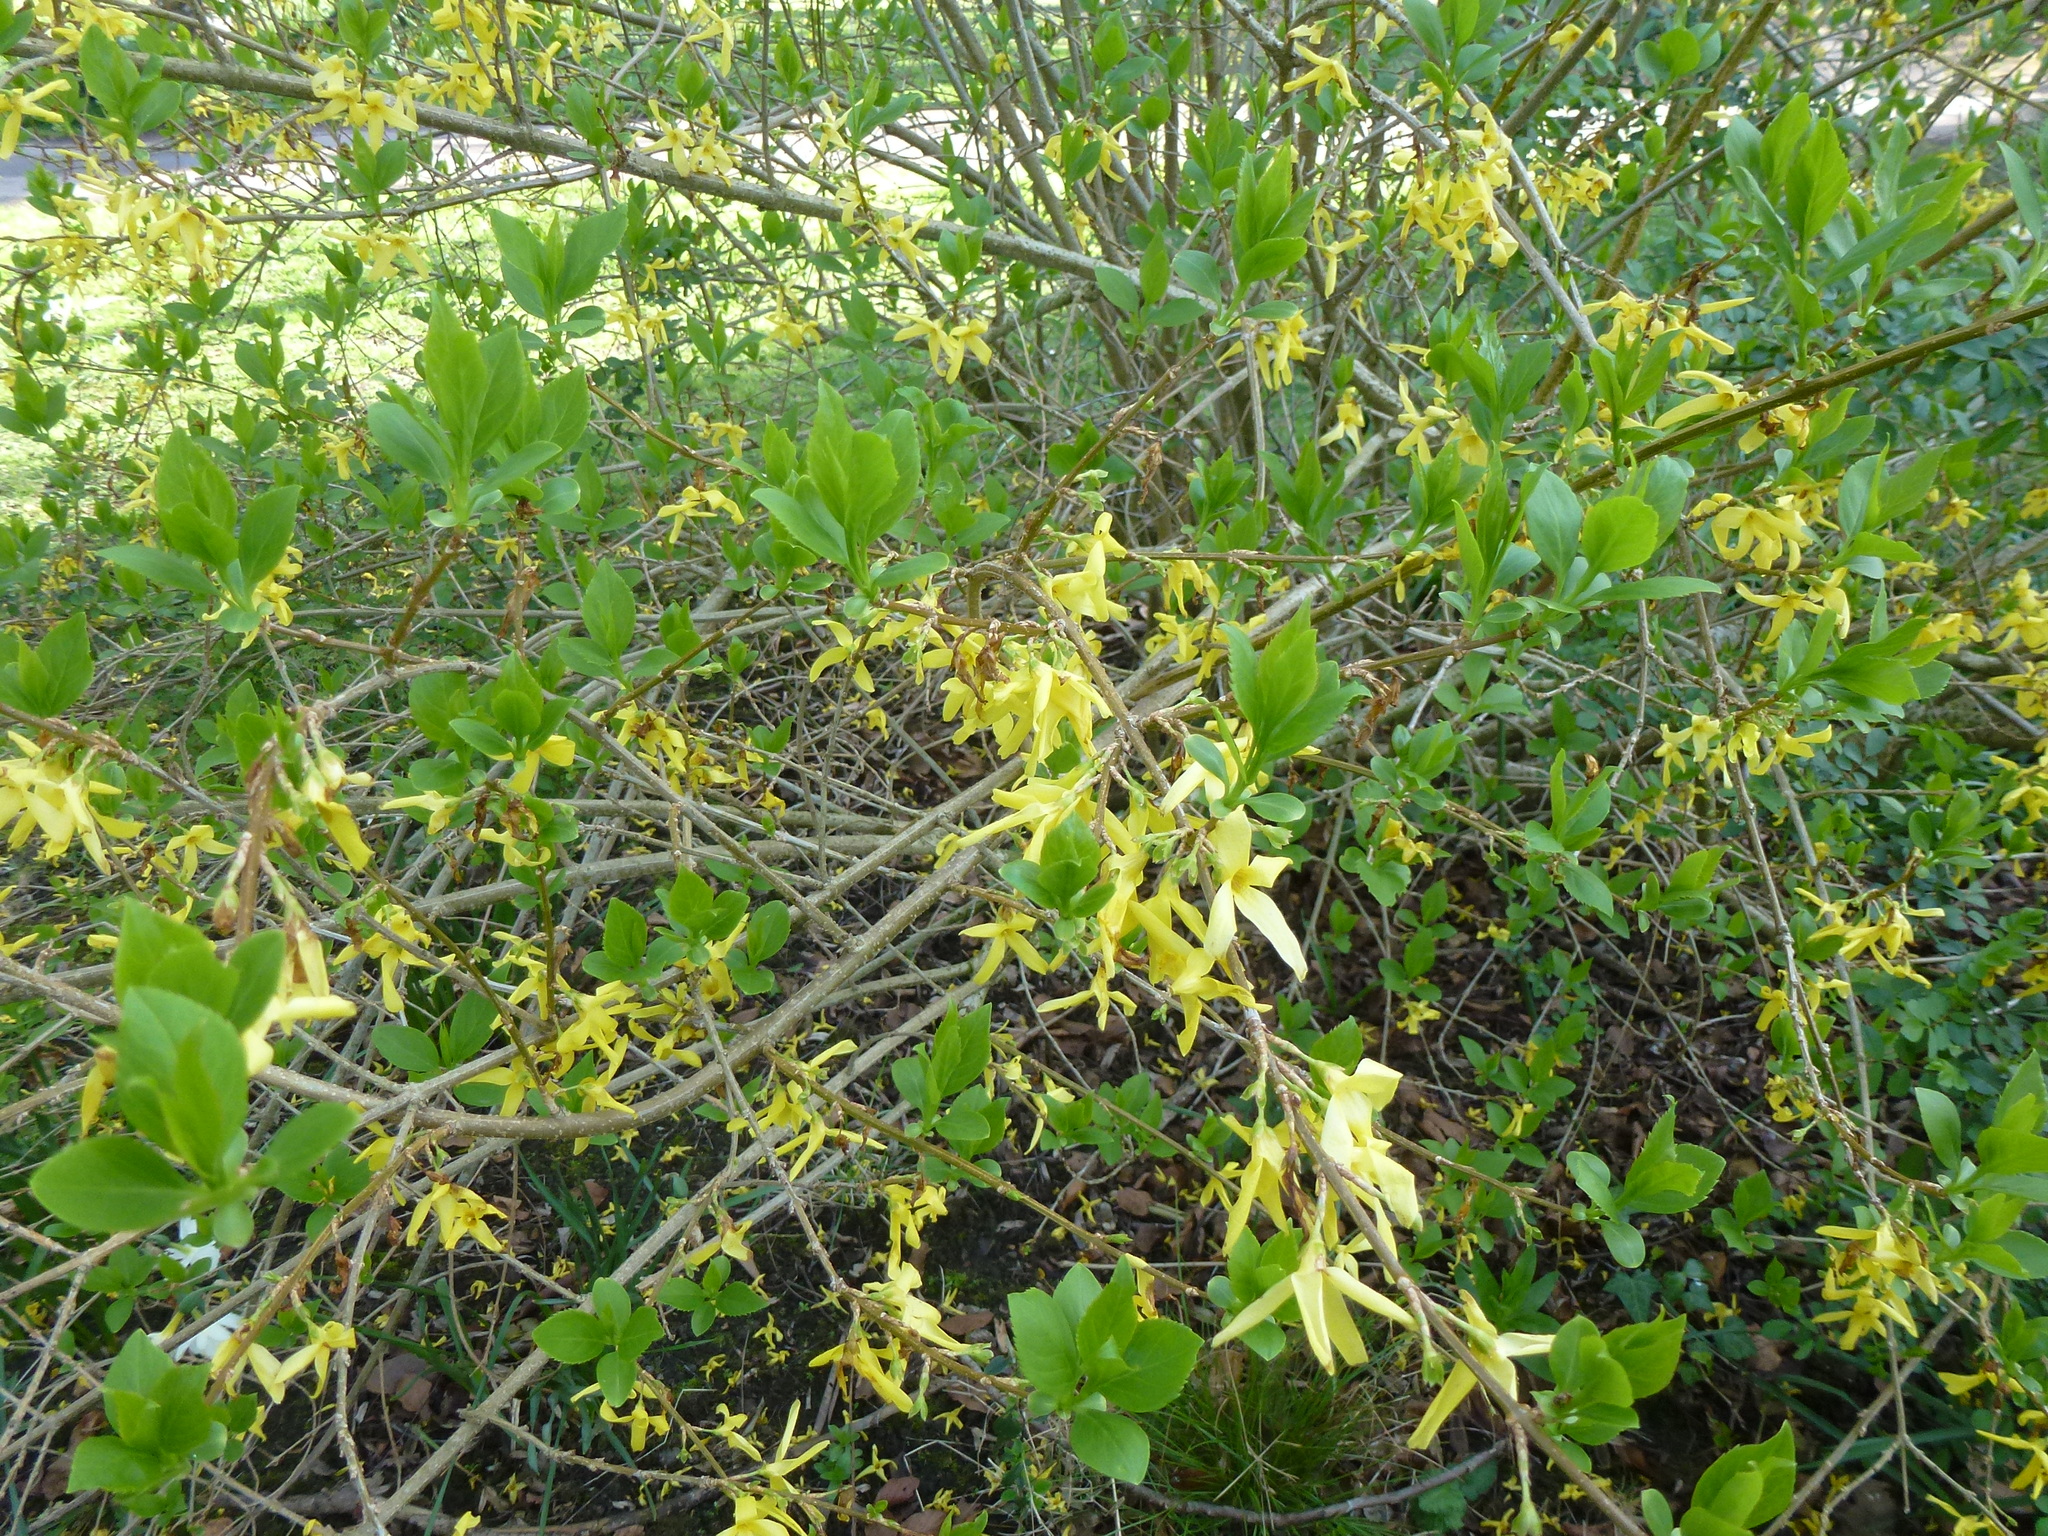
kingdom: Plantae
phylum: Tracheophyta
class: Magnoliopsida
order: Lamiales
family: Oleaceae
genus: Forsythia
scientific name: Forsythia intermedia
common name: Forsythia
